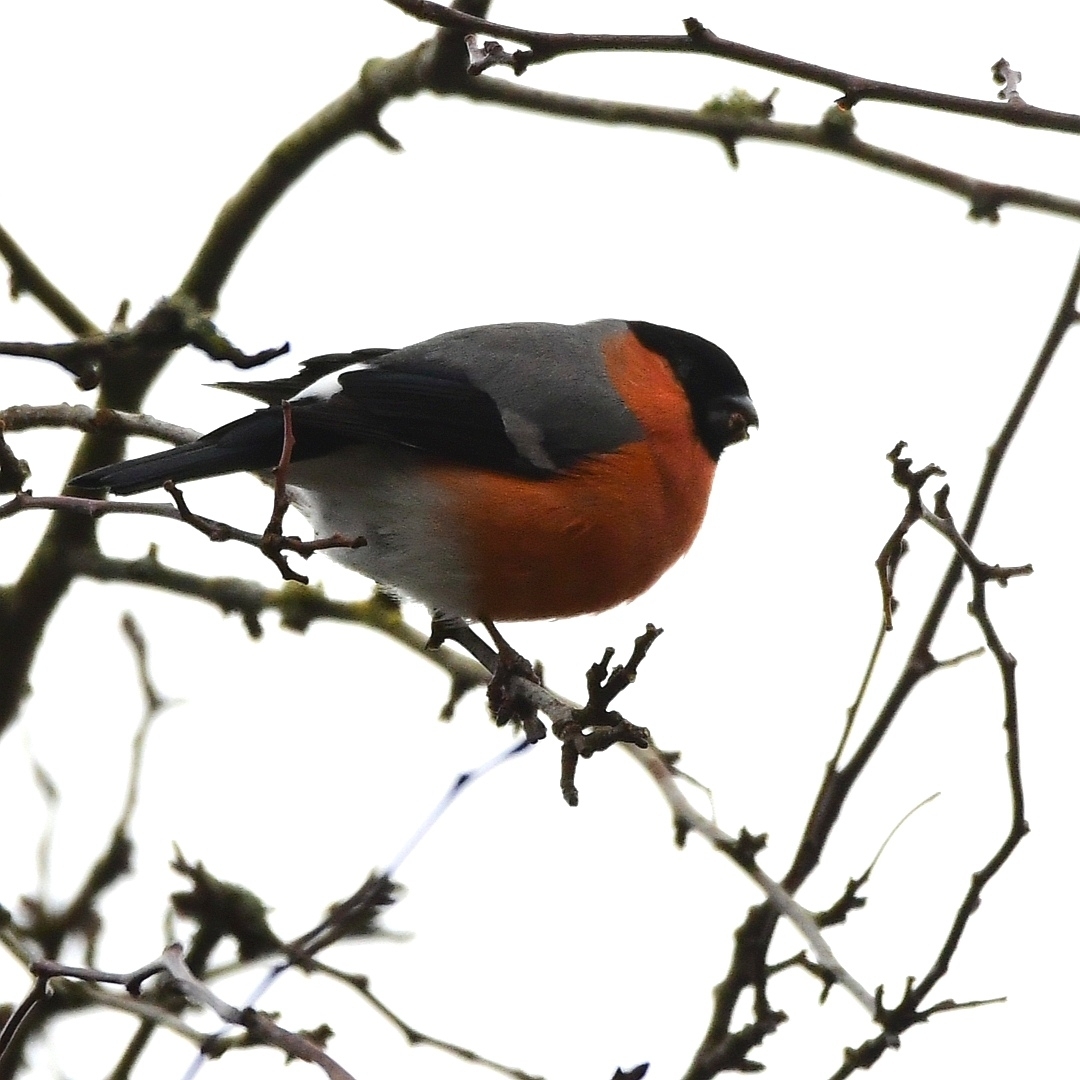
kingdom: Animalia
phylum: Chordata
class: Aves
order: Passeriformes
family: Fringillidae
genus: Pyrrhula
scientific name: Pyrrhula pyrrhula
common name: Eurasian bullfinch
